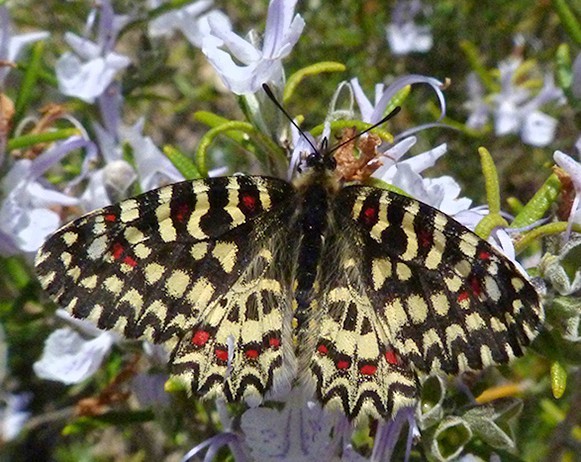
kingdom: Animalia
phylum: Arthropoda
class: Insecta
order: Lepidoptera
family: Papilionidae
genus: Zerynthia
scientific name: Zerynthia rumina
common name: Spanish festoon
